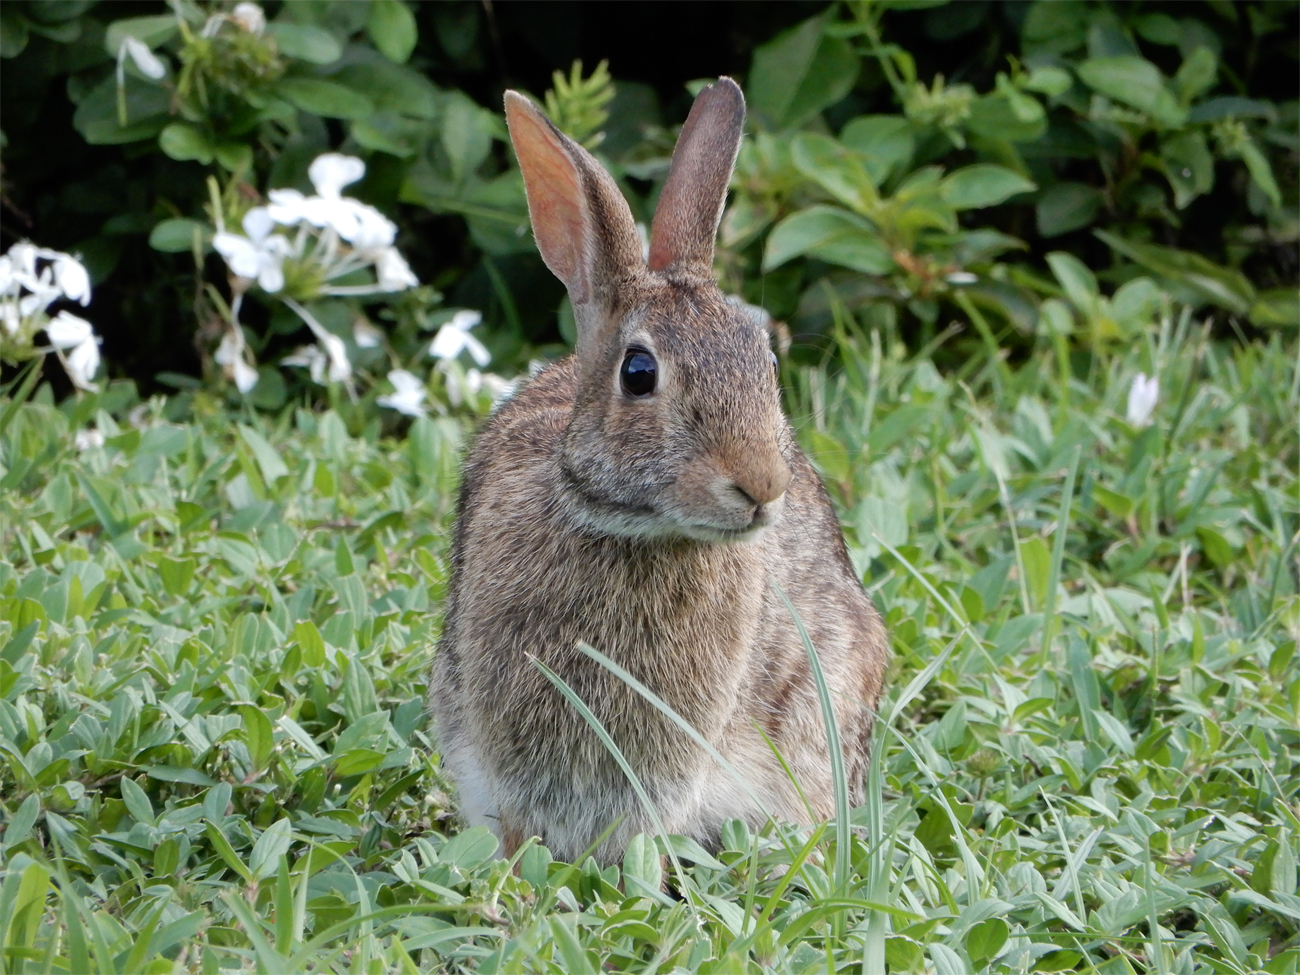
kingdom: Animalia
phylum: Chordata
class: Mammalia
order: Lagomorpha
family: Leporidae
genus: Sylvilagus
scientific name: Sylvilagus floridanus
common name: Eastern cottontail
